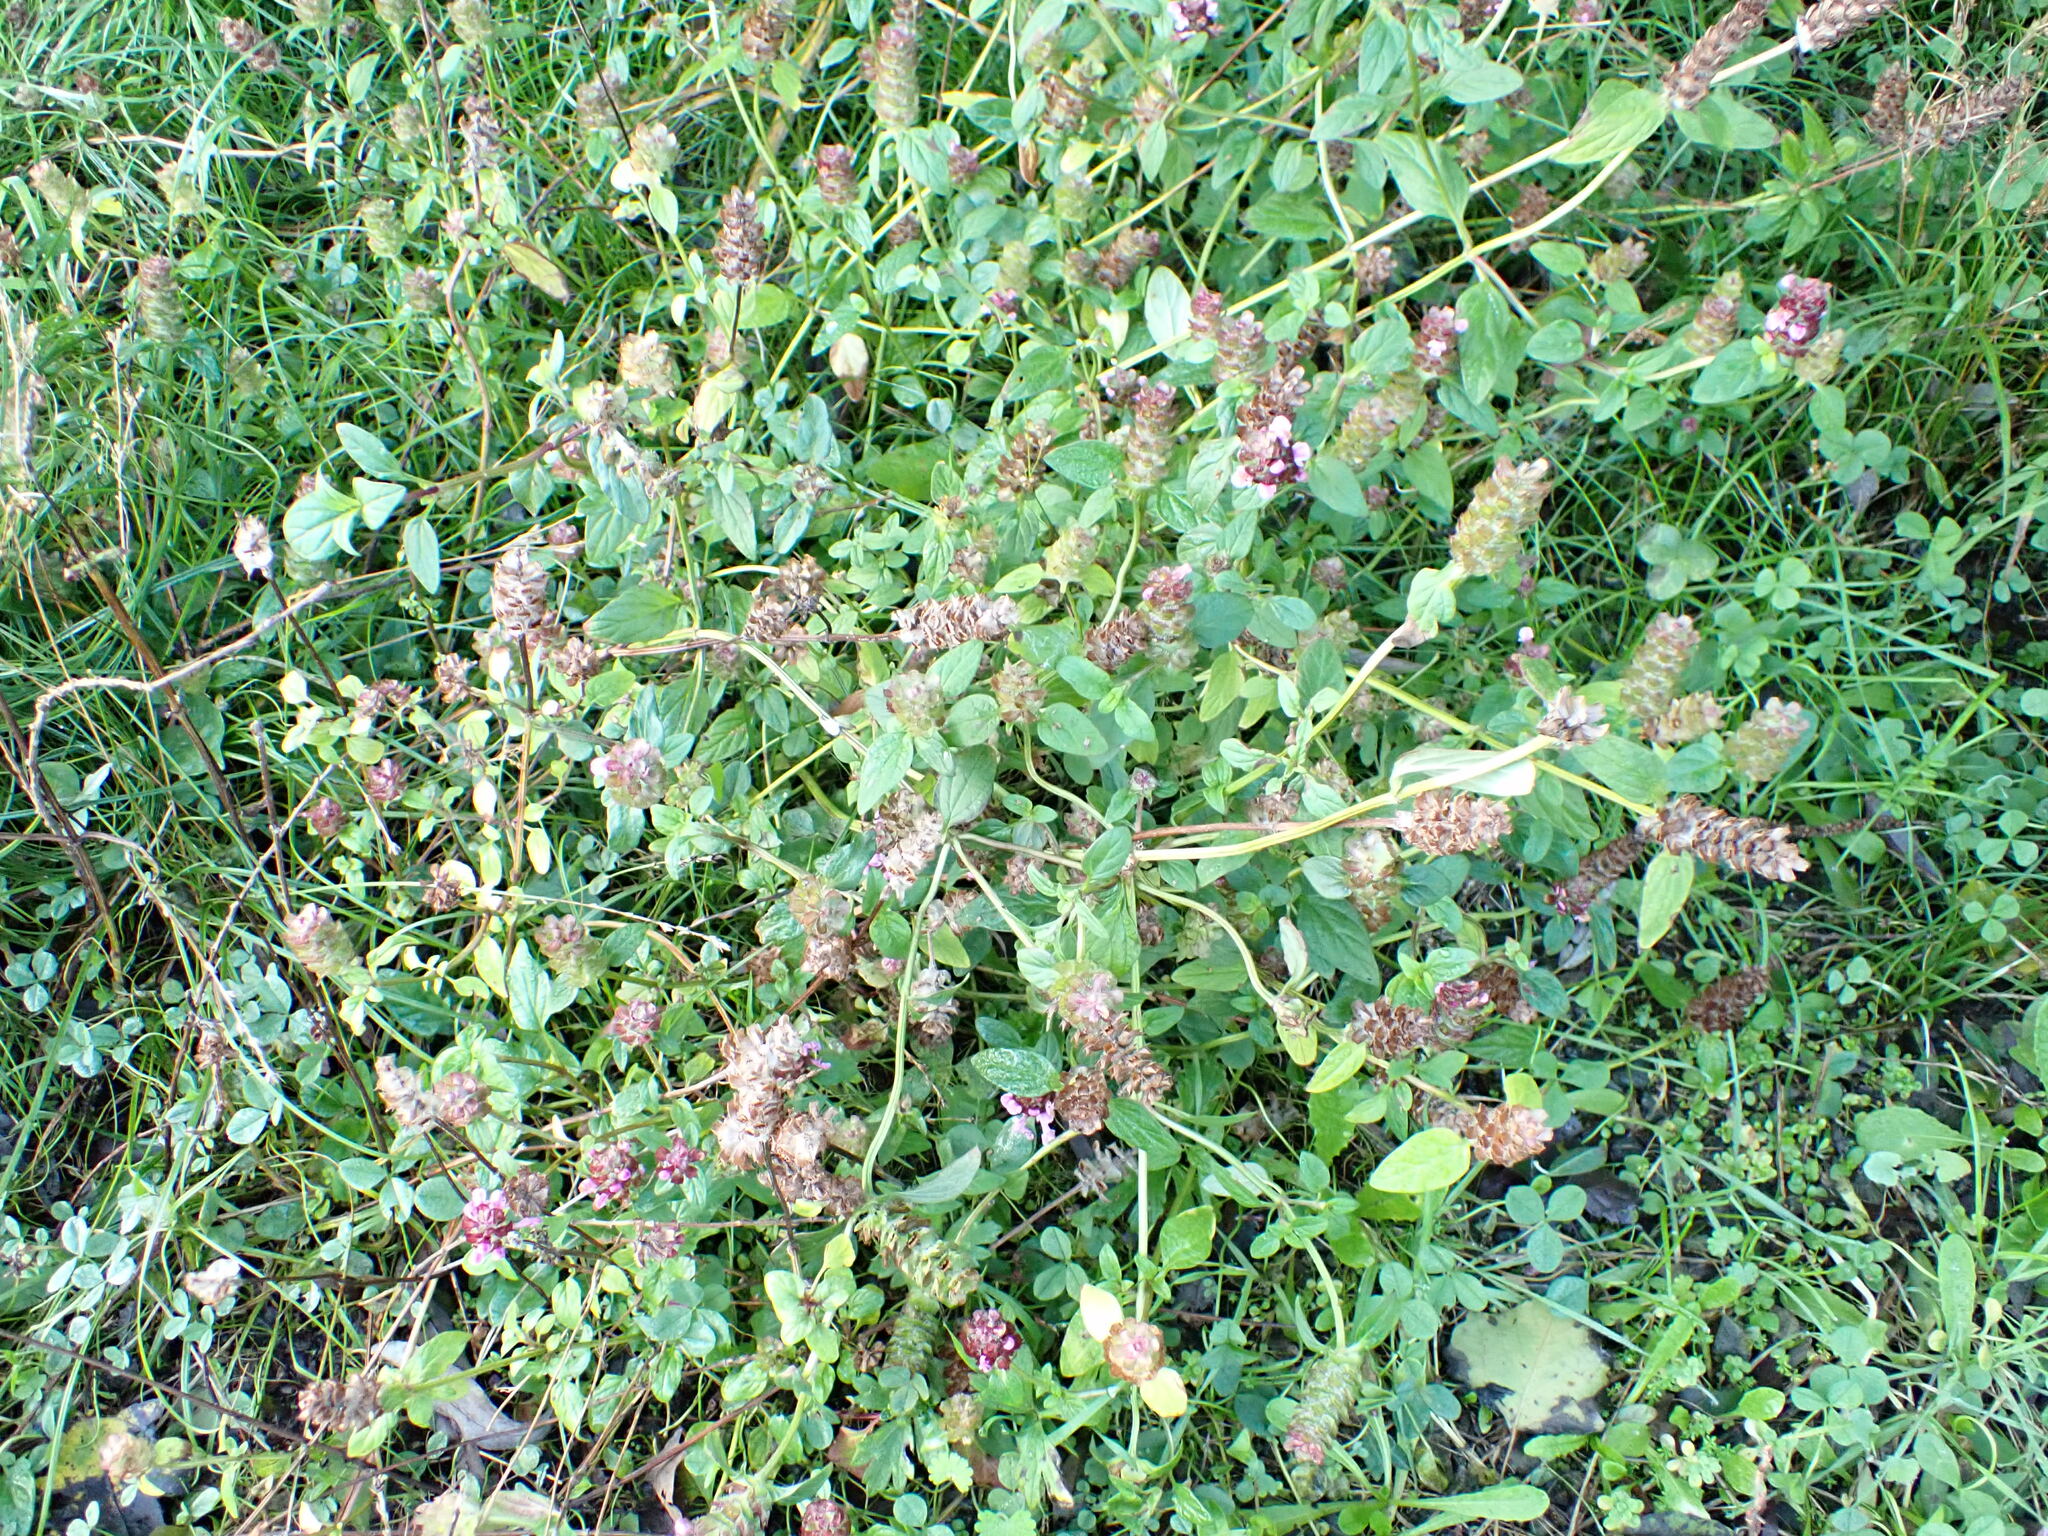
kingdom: Plantae
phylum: Tracheophyta
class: Magnoliopsida
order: Lamiales
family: Lamiaceae
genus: Prunella
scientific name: Prunella vulgaris
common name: Heal-all
